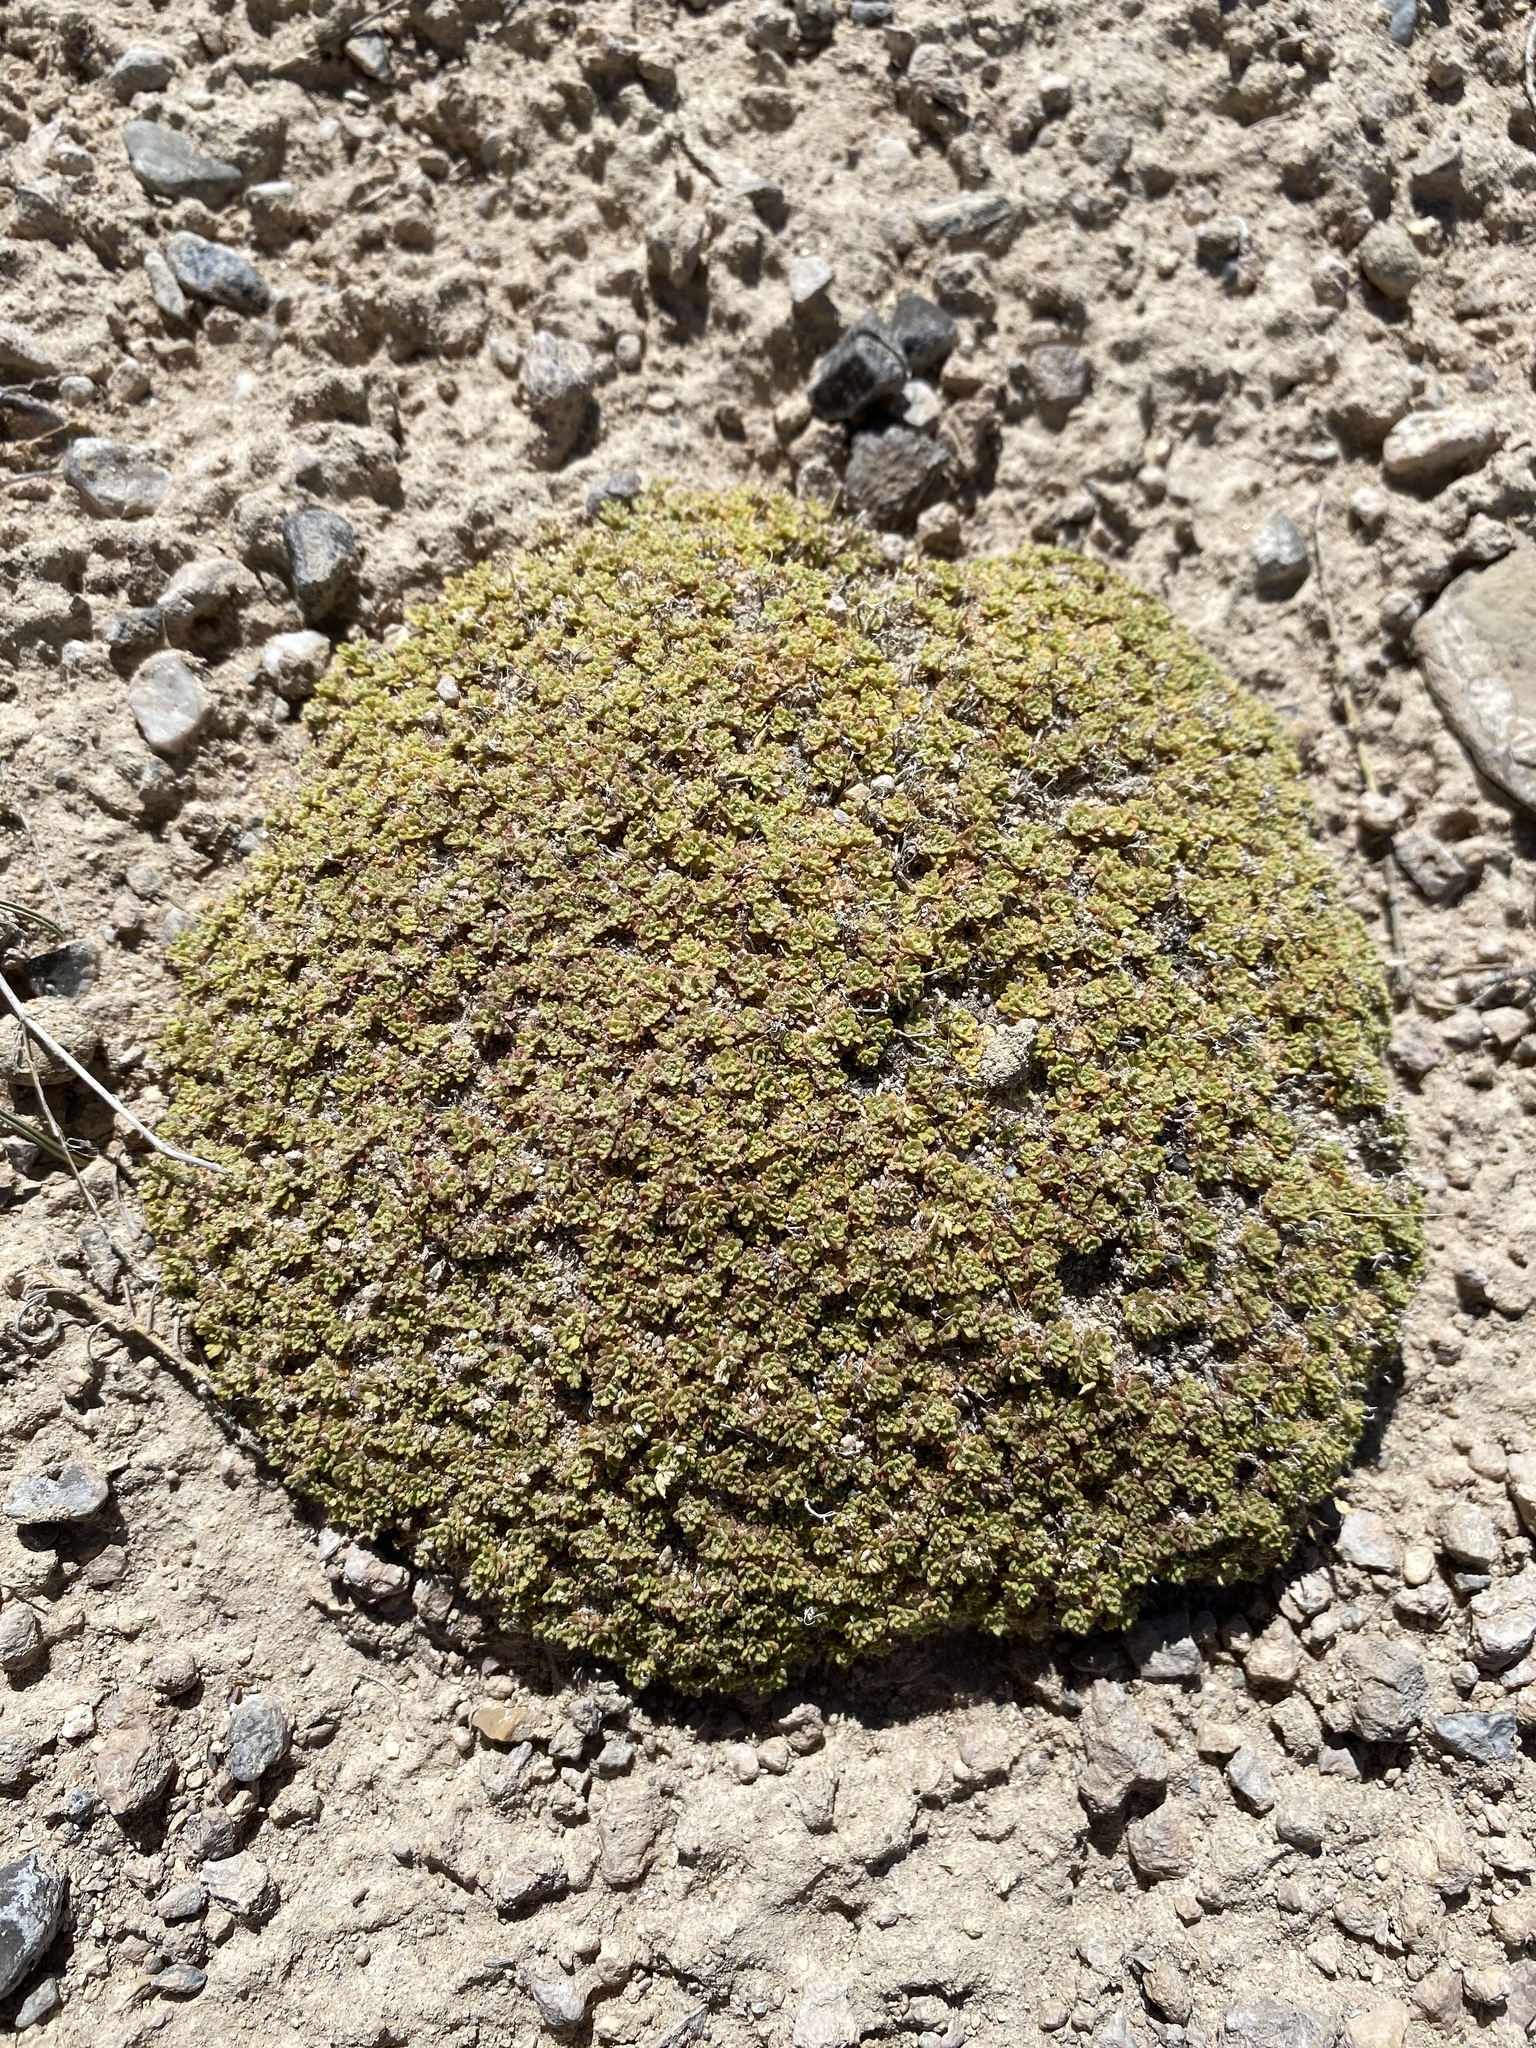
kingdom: Plantae
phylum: Tracheophyta
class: Magnoliopsida
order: Brassicales
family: Brassicaceae
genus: Lepidium
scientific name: Lepidium nanum
